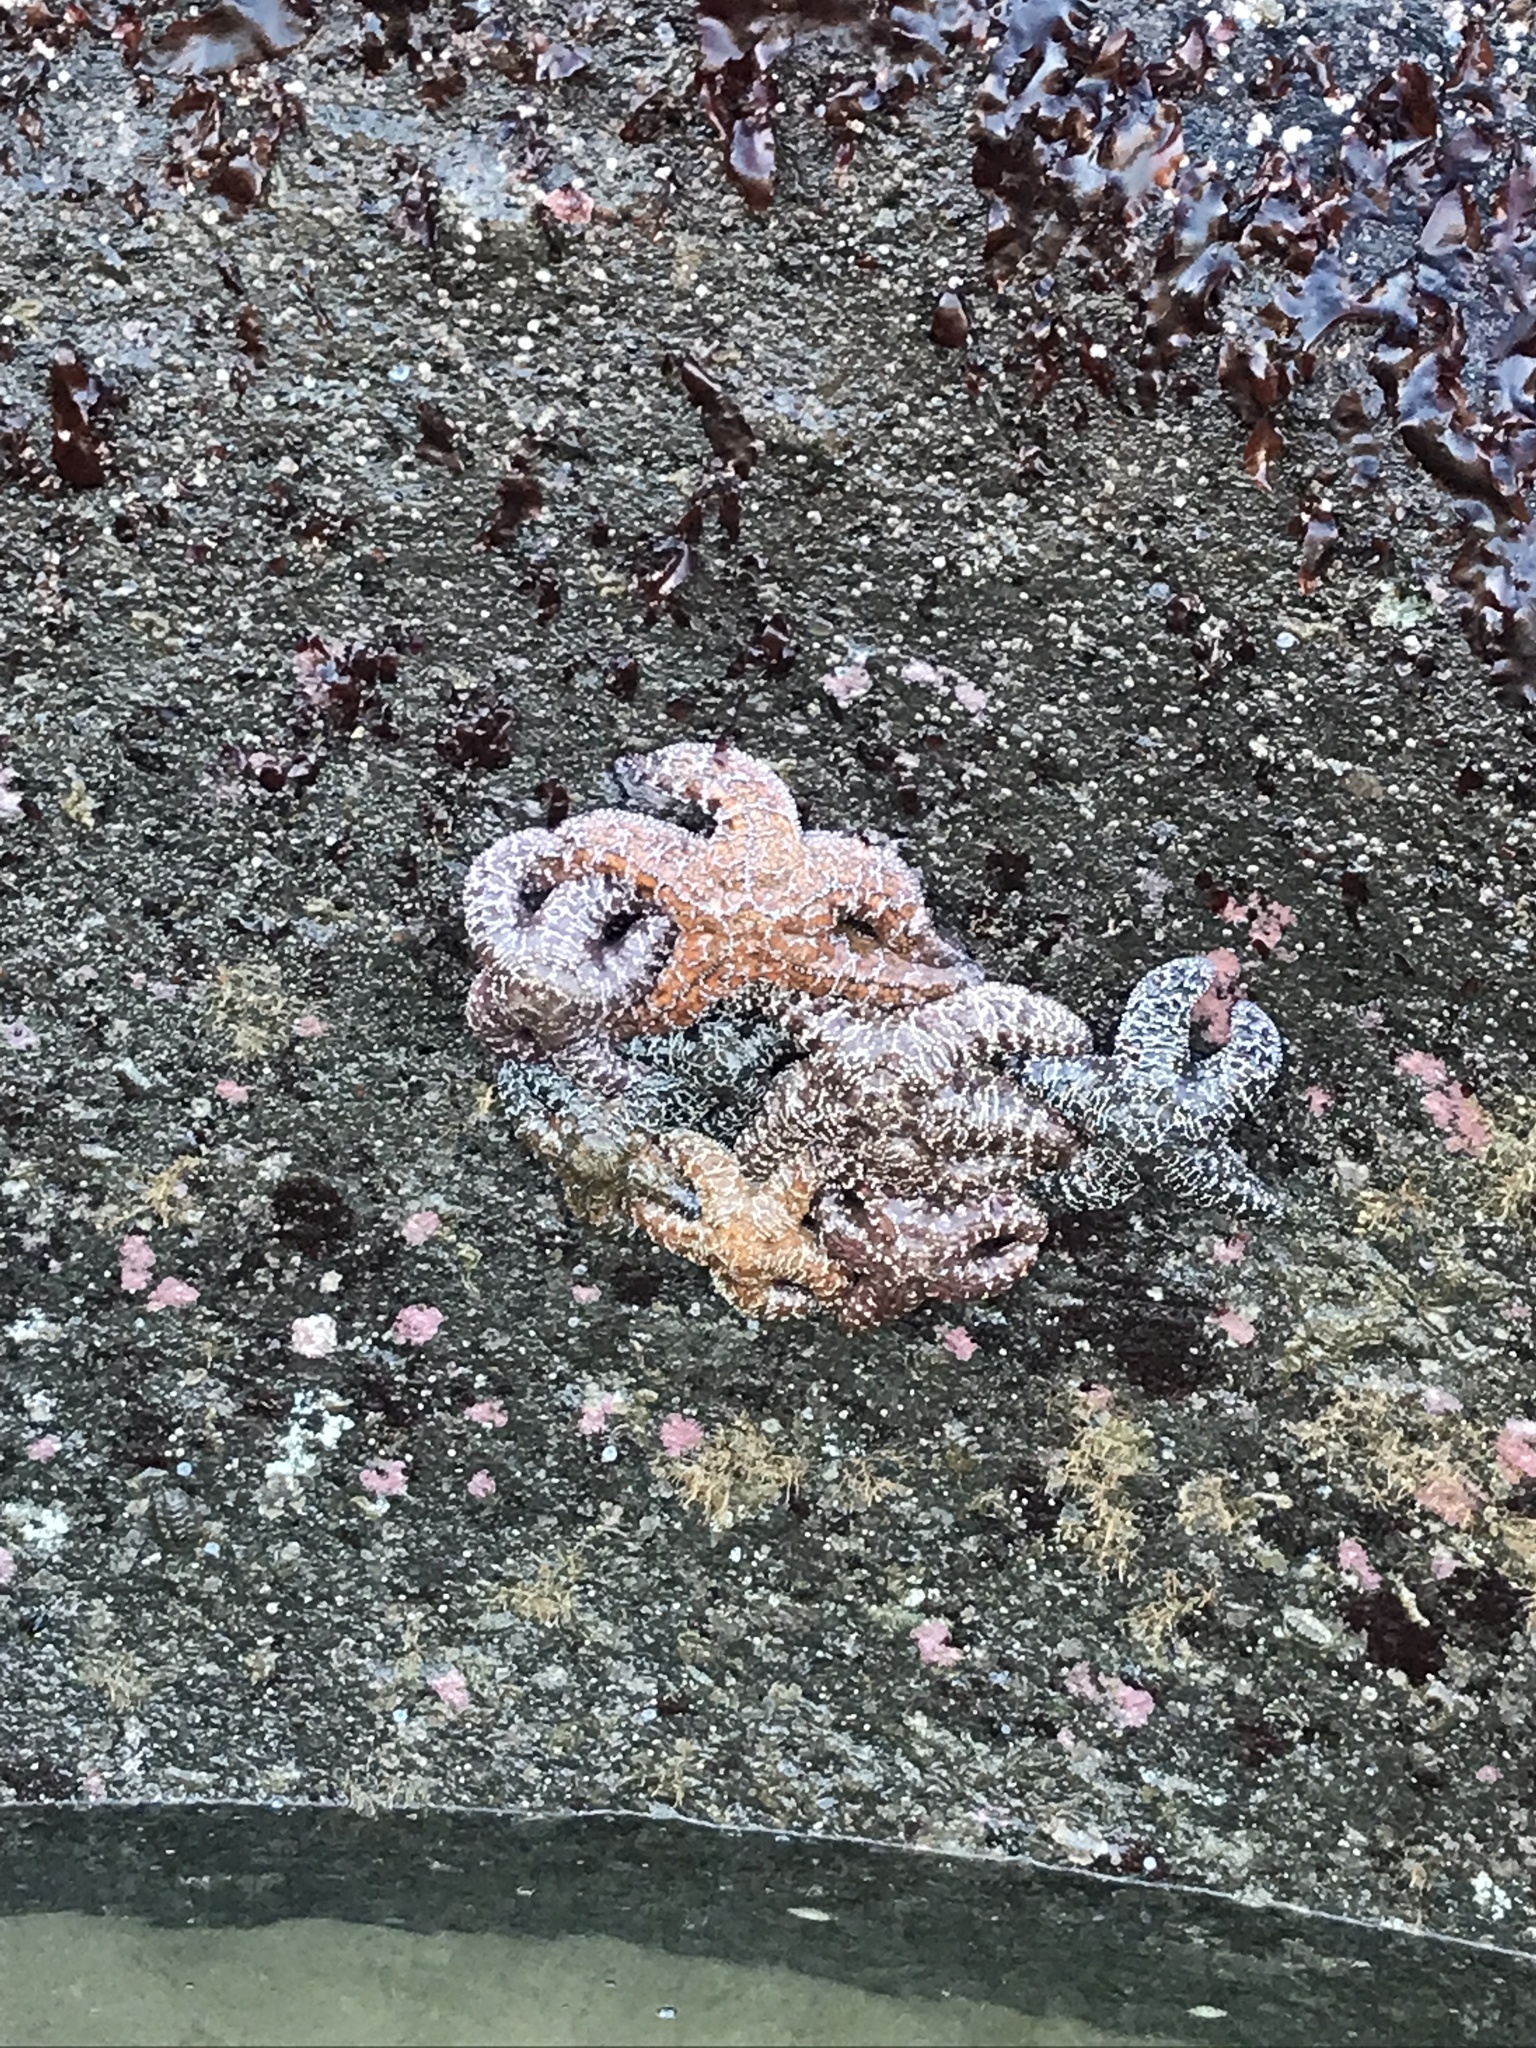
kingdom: Animalia
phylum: Echinodermata
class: Asteroidea
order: Forcipulatida
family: Asteriidae
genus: Pisaster
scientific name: Pisaster ochraceus
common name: Ochre stars
